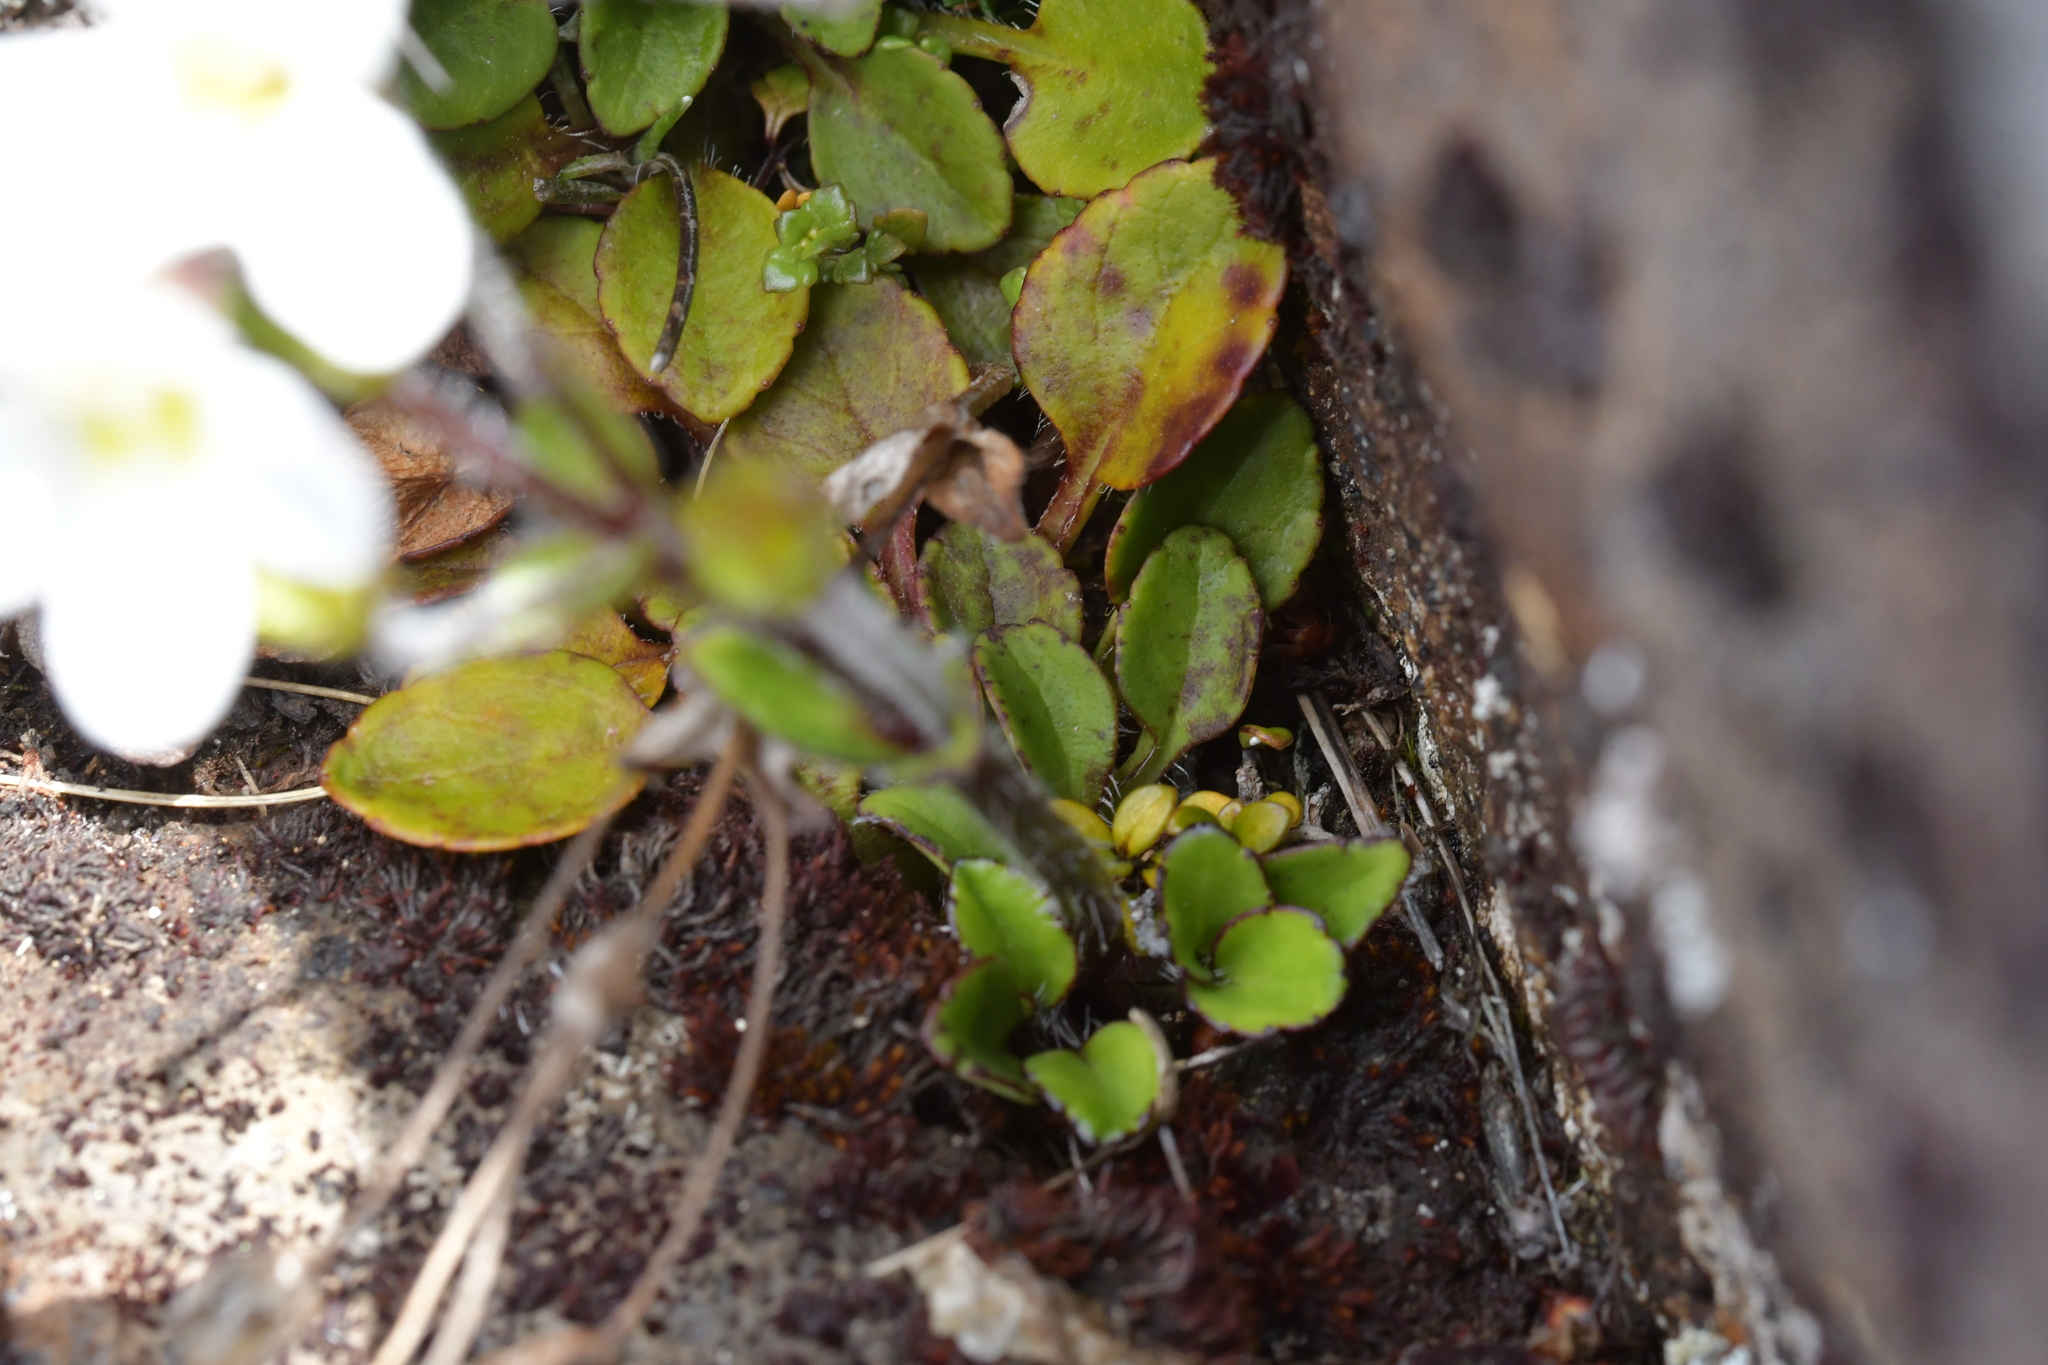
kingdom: Plantae
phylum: Tracheophyta
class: Magnoliopsida
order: Lamiales
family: Plantaginaceae
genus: Ourisia
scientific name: Ourisia vulcanica
